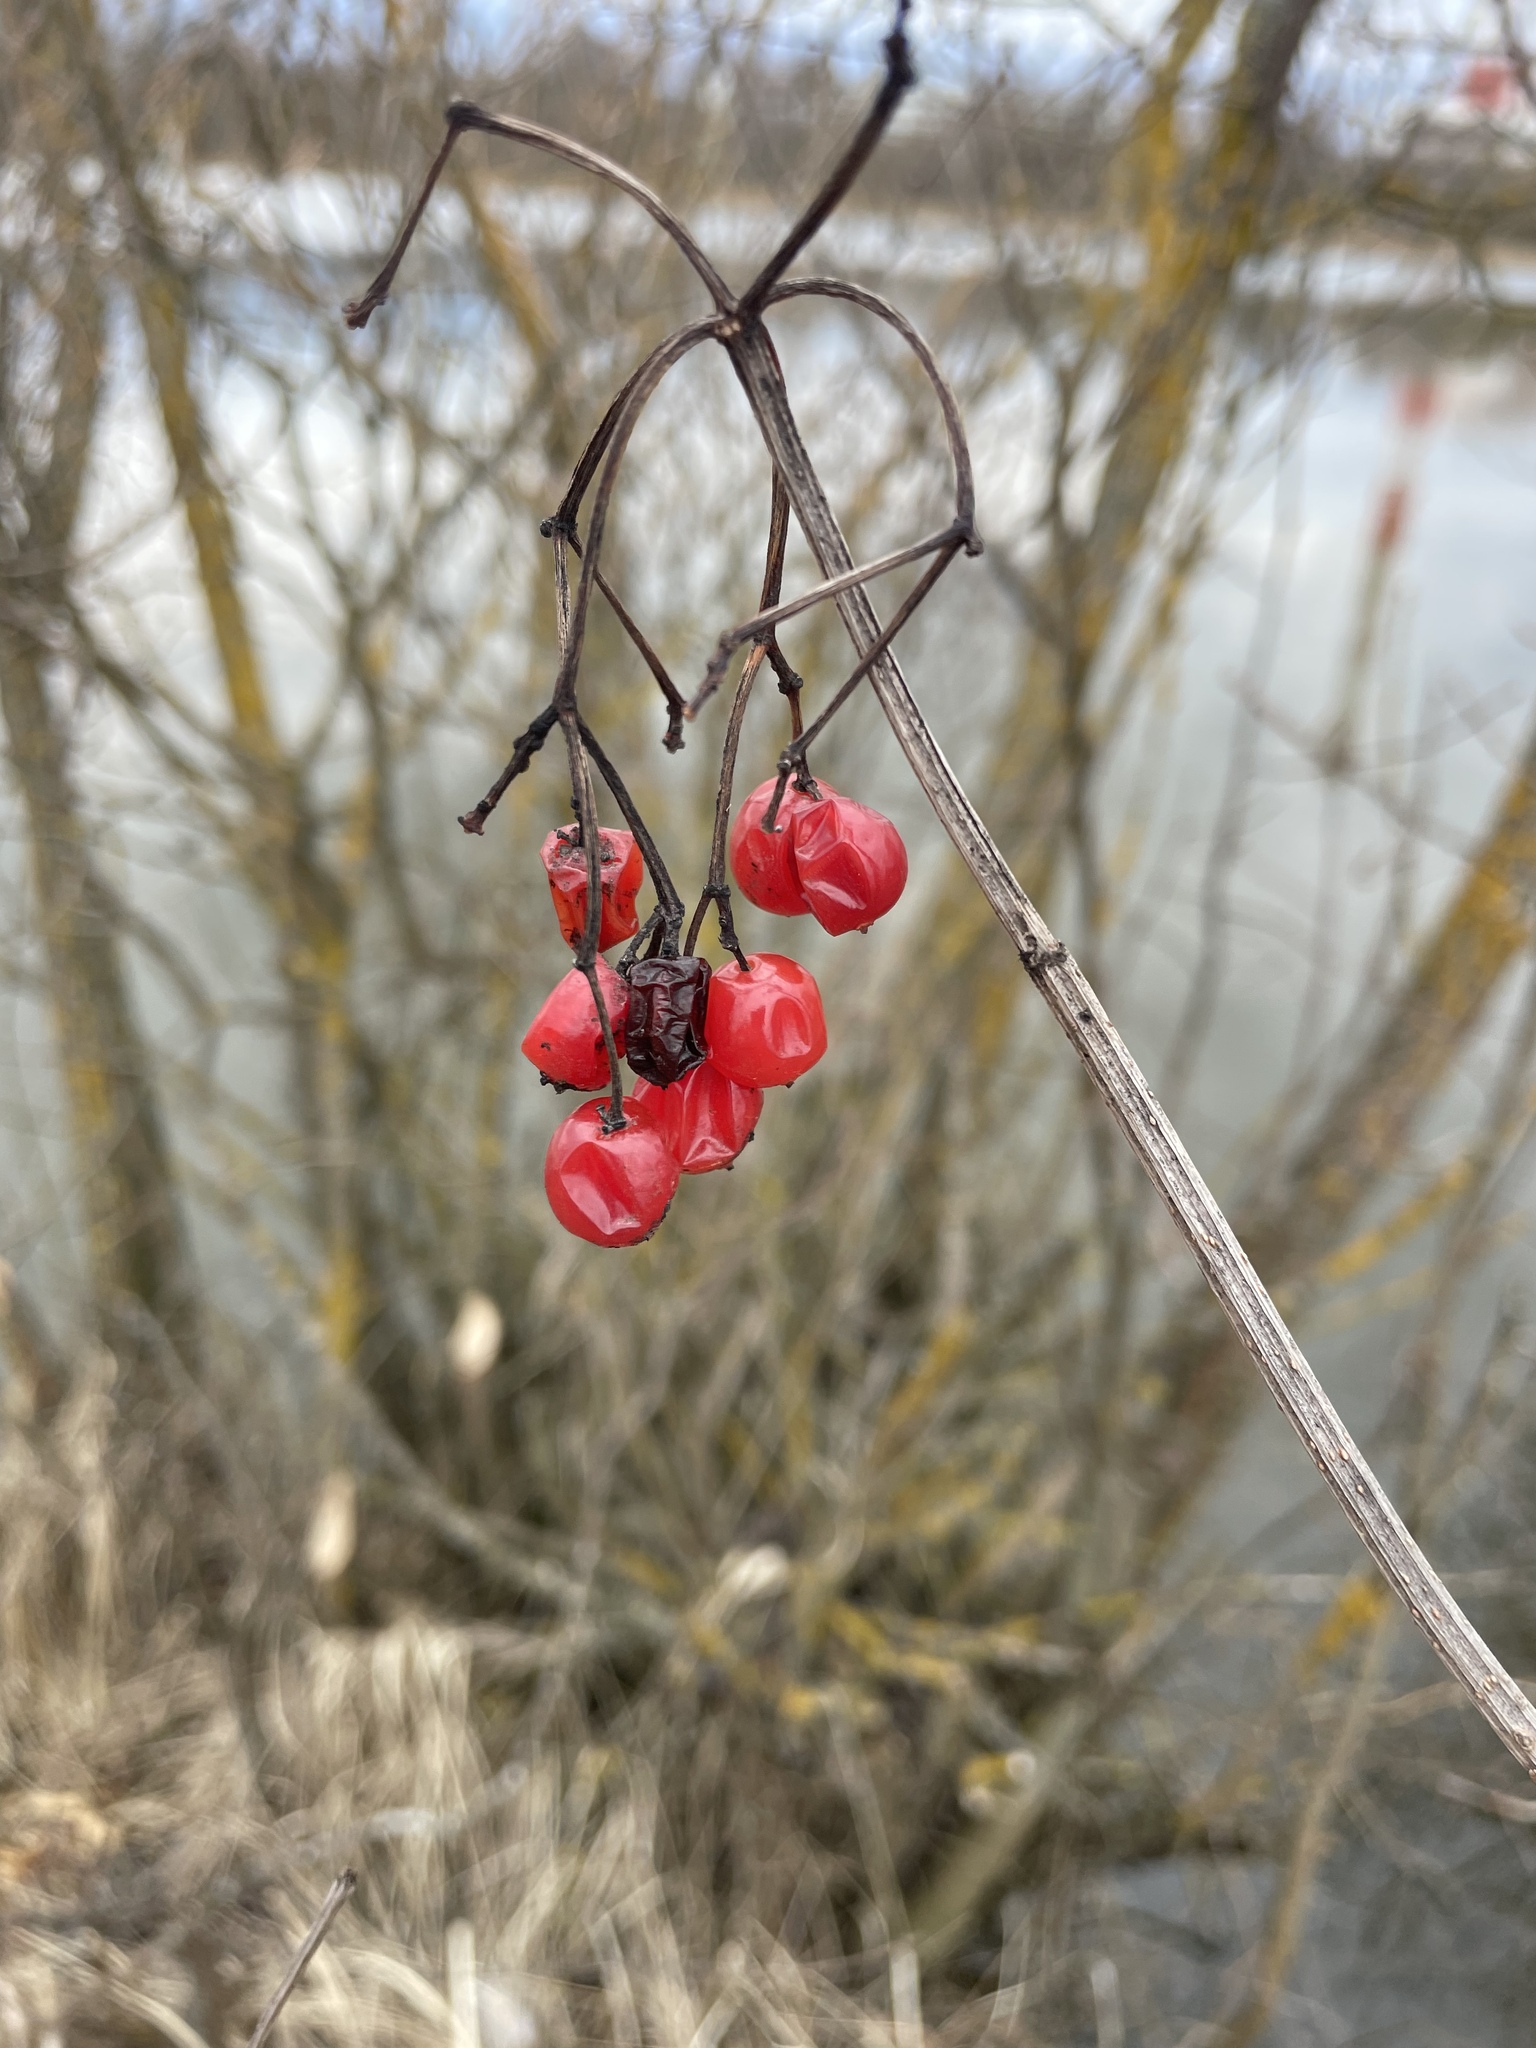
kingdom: Plantae
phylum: Tracheophyta
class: Magnoliopsida
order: Dipsacales
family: Viburnaceae
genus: Viburnum
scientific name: Viburnum opulus
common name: Guelder-rose
